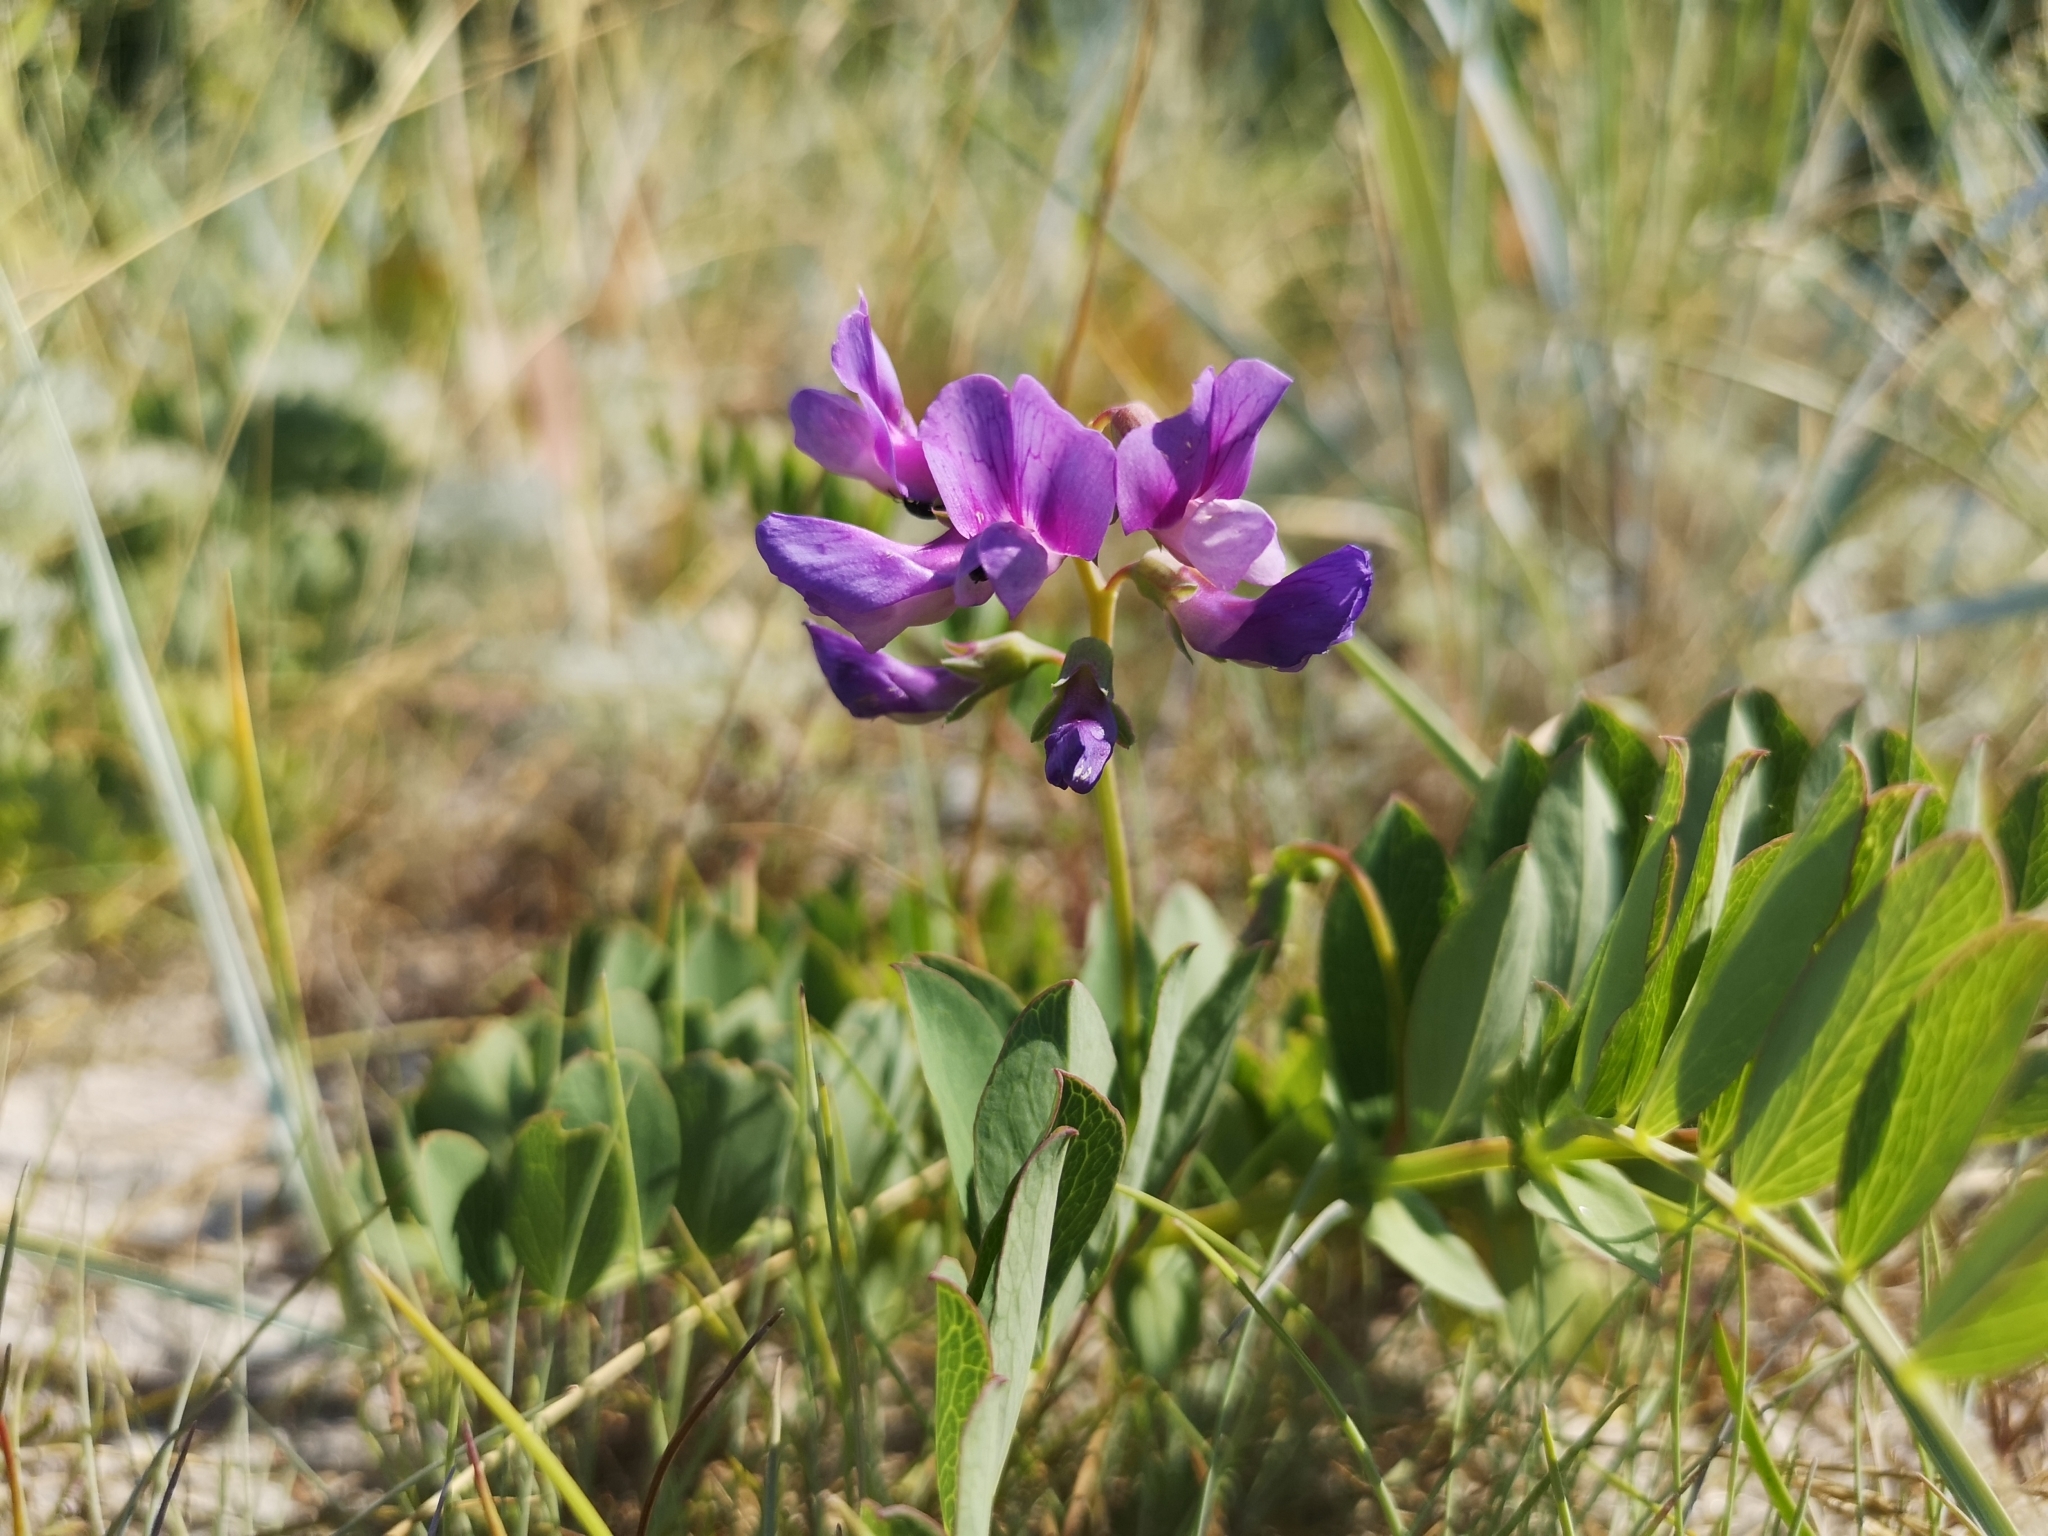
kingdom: Plantae
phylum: Tracheophyta
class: Magnoliopsida
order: Fabales
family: Fabaceae
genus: Lathyrus
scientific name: Lathyrus japonicus
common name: Sea pea
